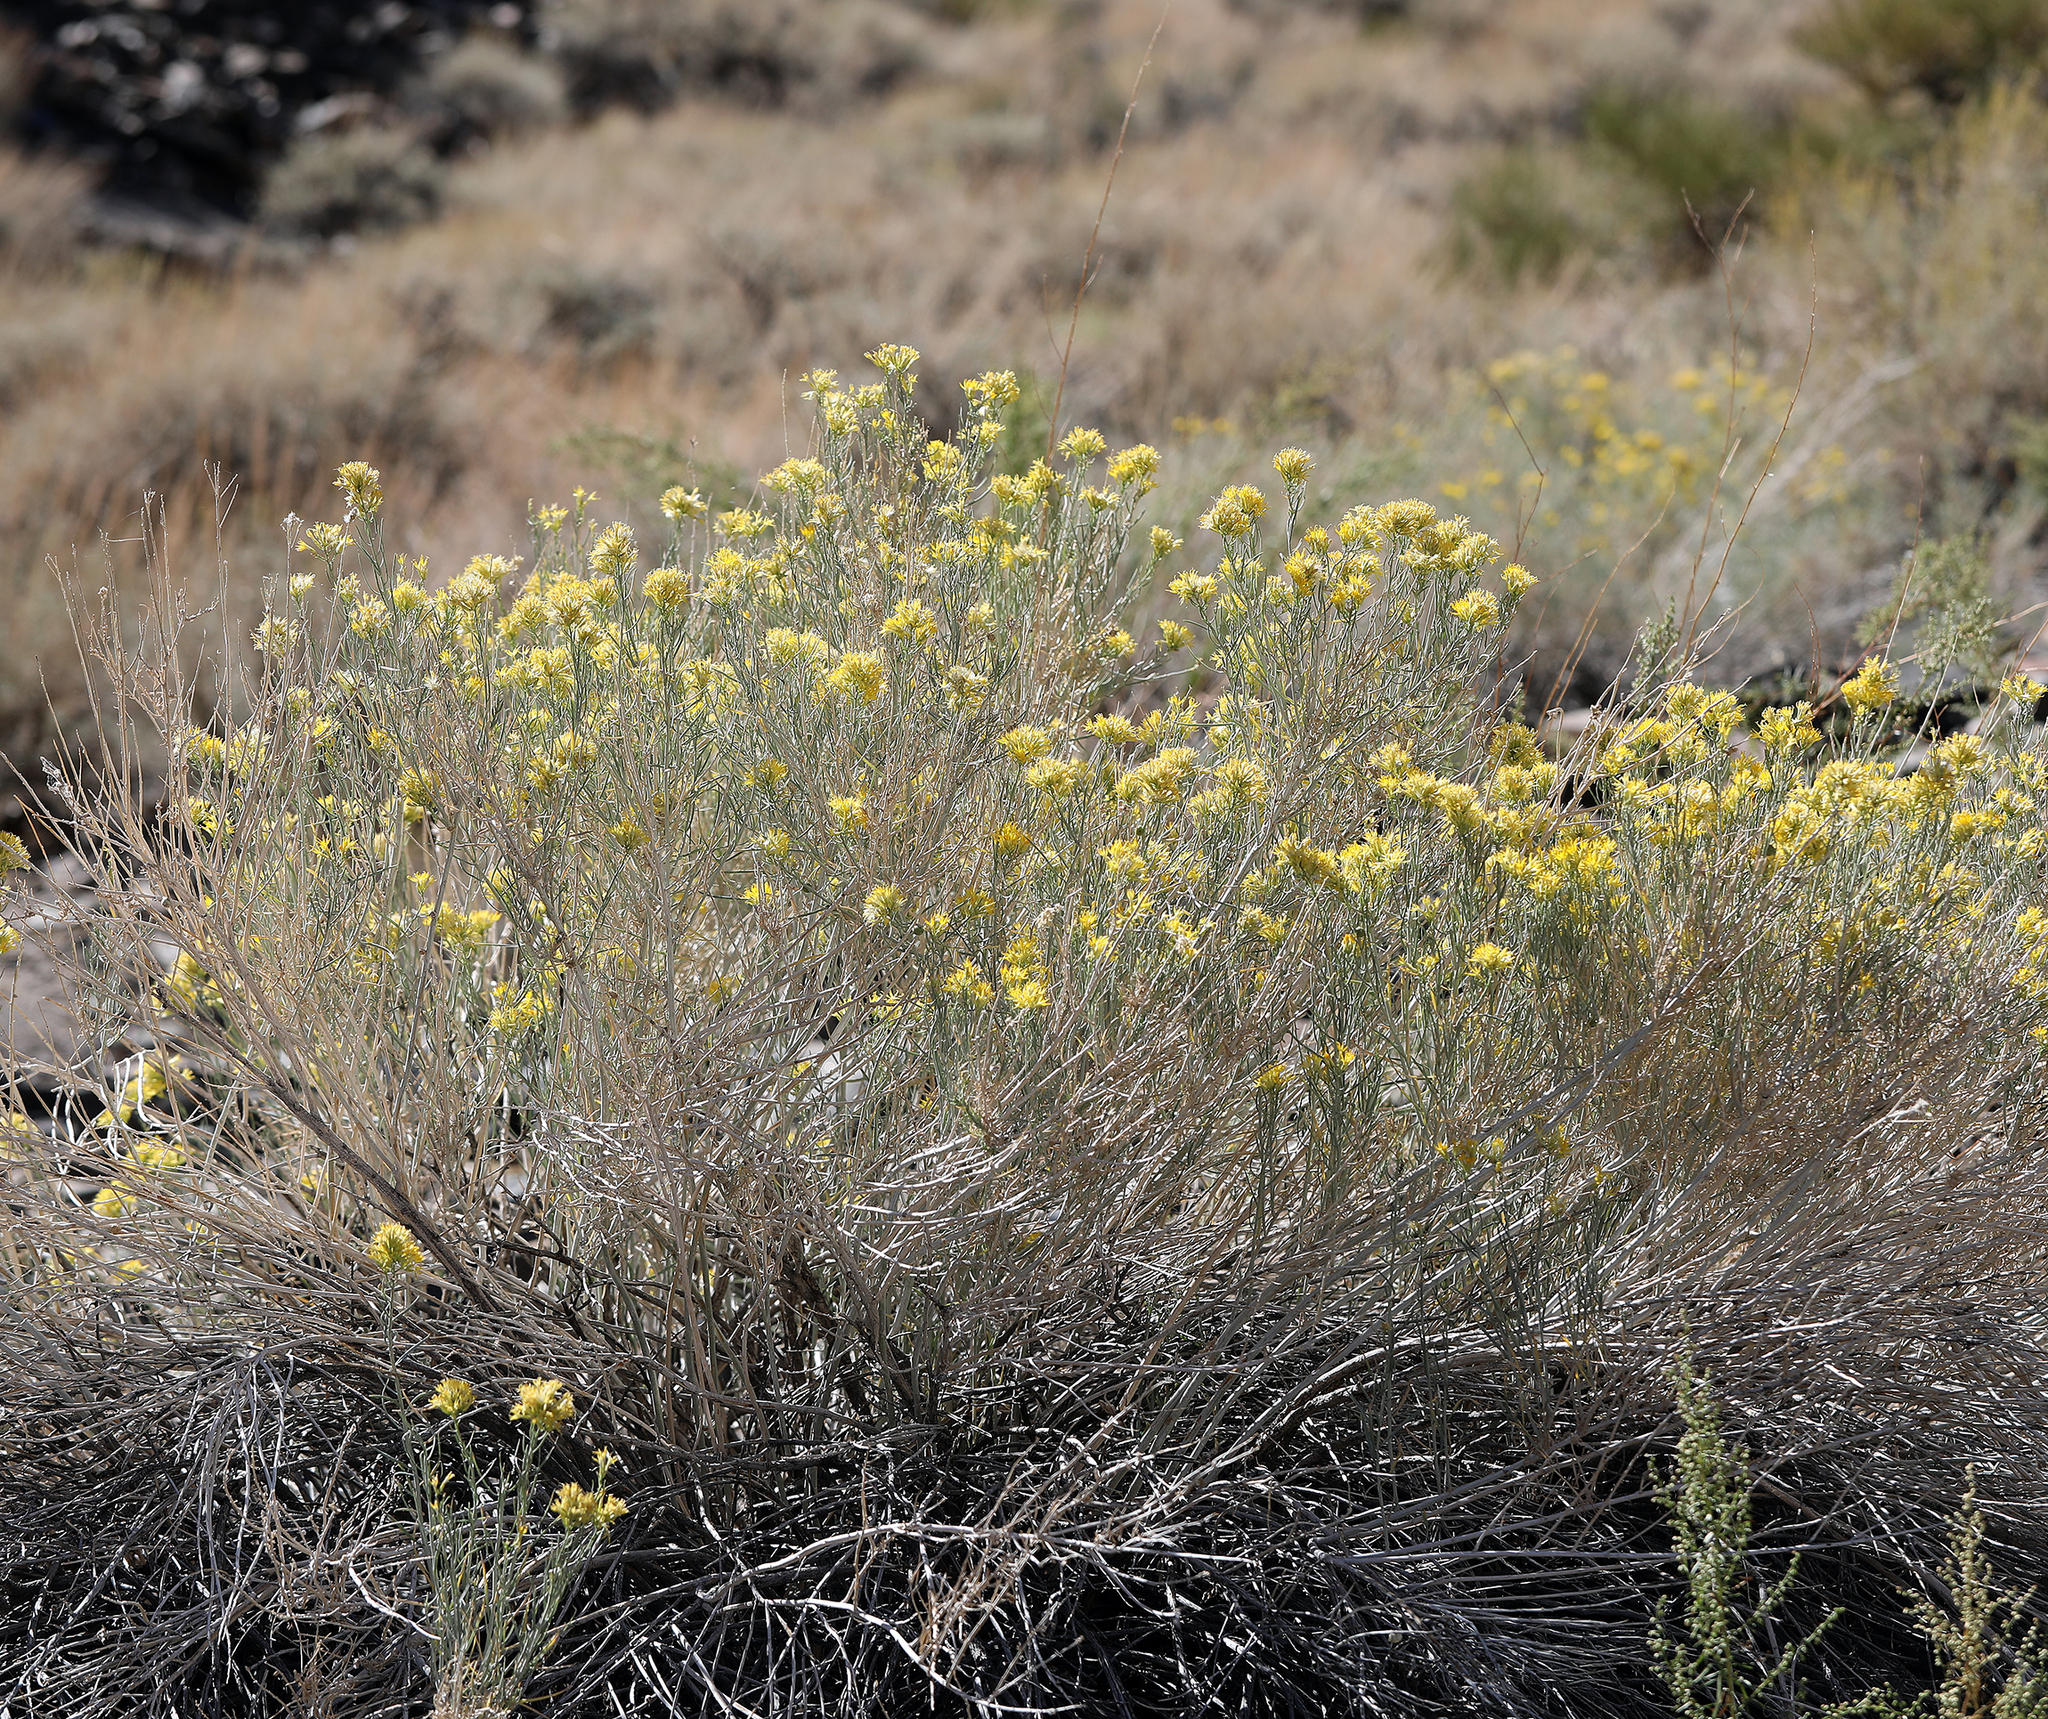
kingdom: Plantae
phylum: Tracheophyta
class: Magnoliopsida
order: Asterales
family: Asteraceae
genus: Ericameria
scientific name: Ericameria nauseosa
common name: Rubber rabbitbrush
